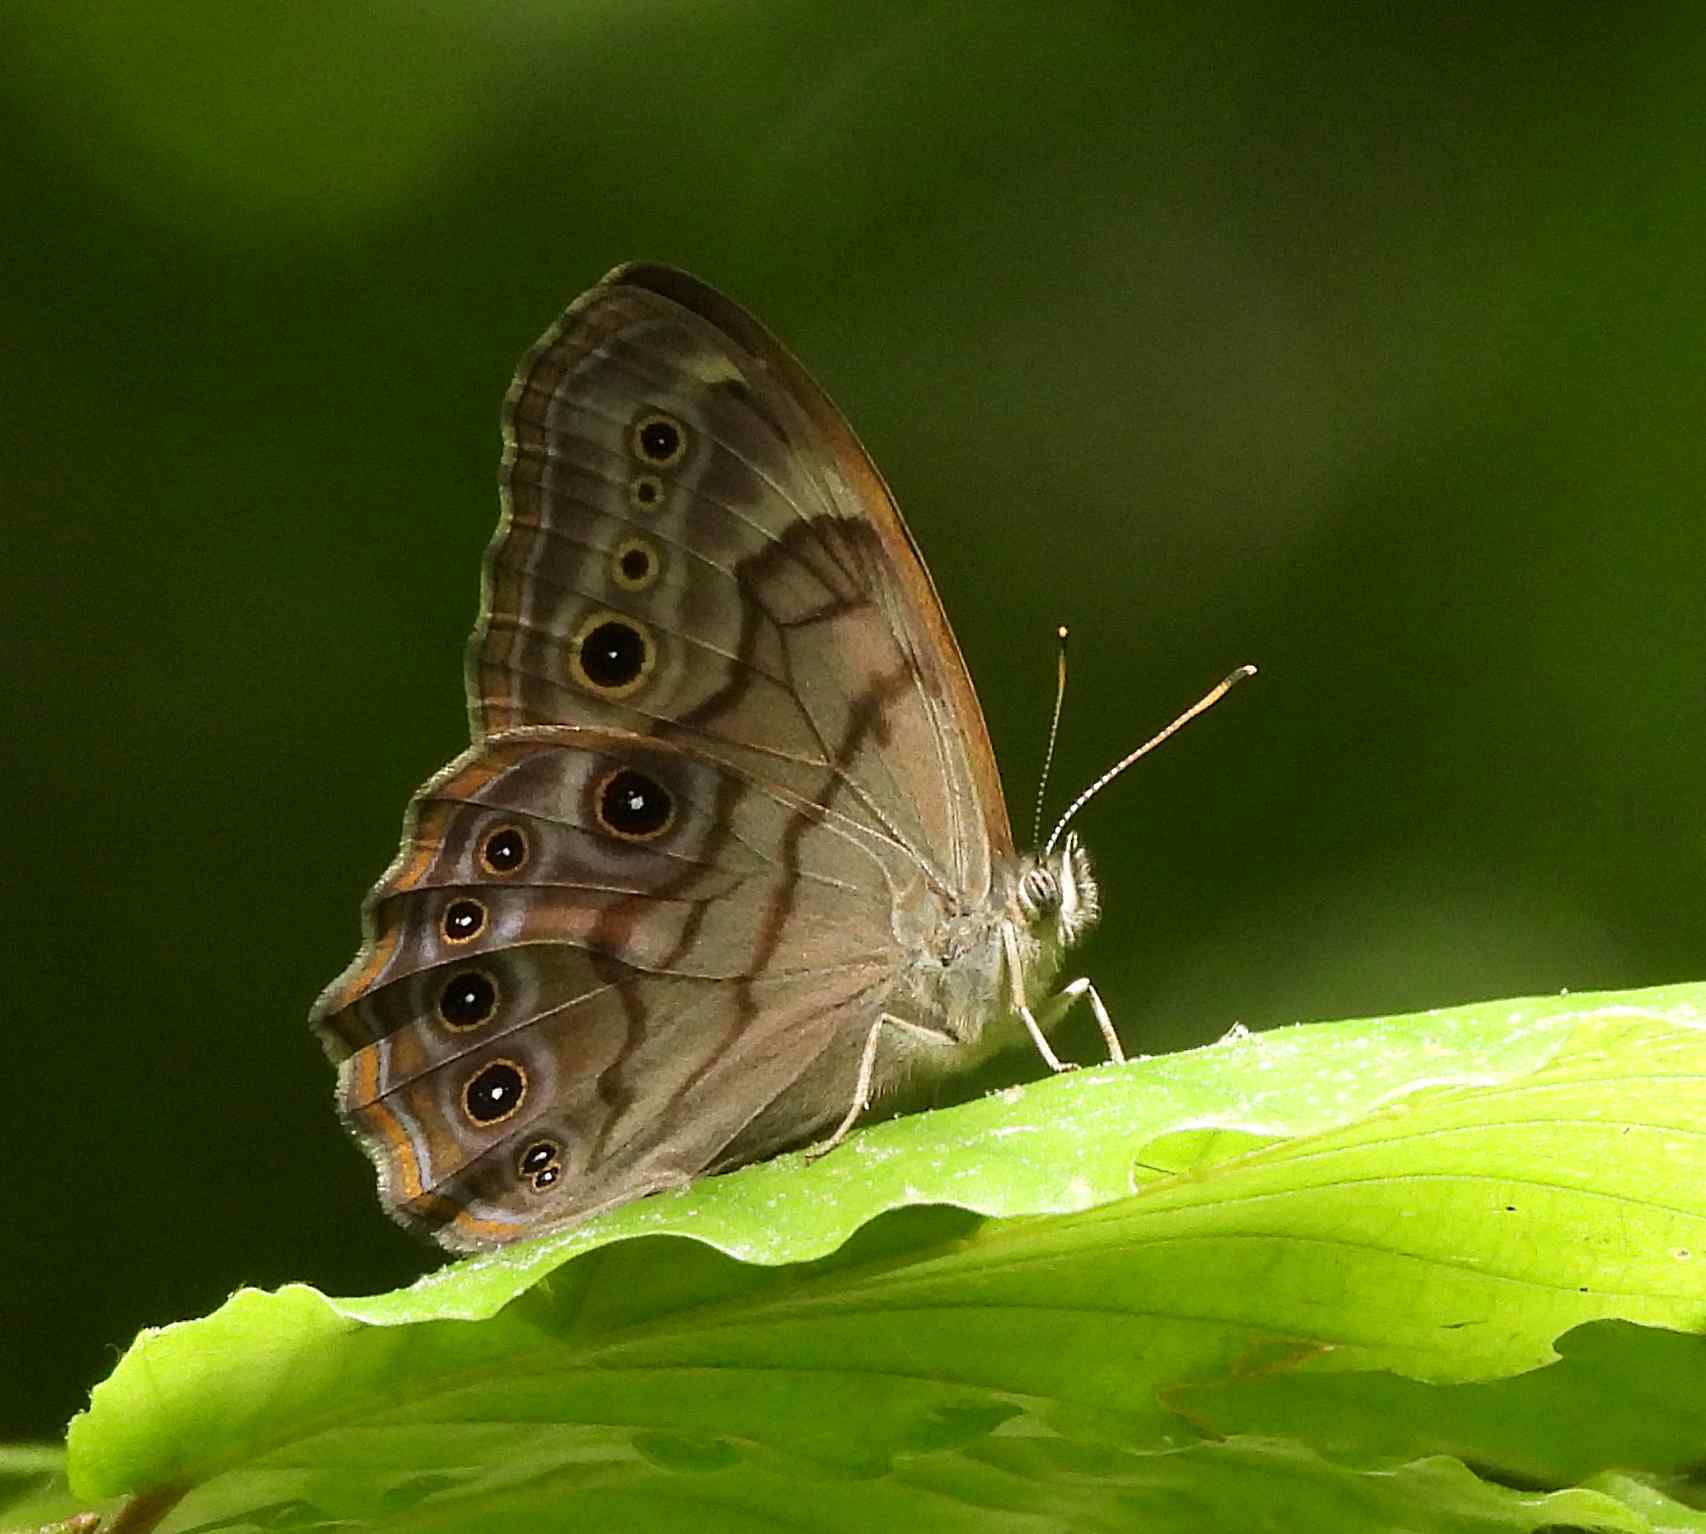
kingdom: Animalia
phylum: Arthropoda
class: Insecta
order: Lepidoptera
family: Nymphalidae
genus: Lethe
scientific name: Lethe anthedon
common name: Northern pearly-eye
